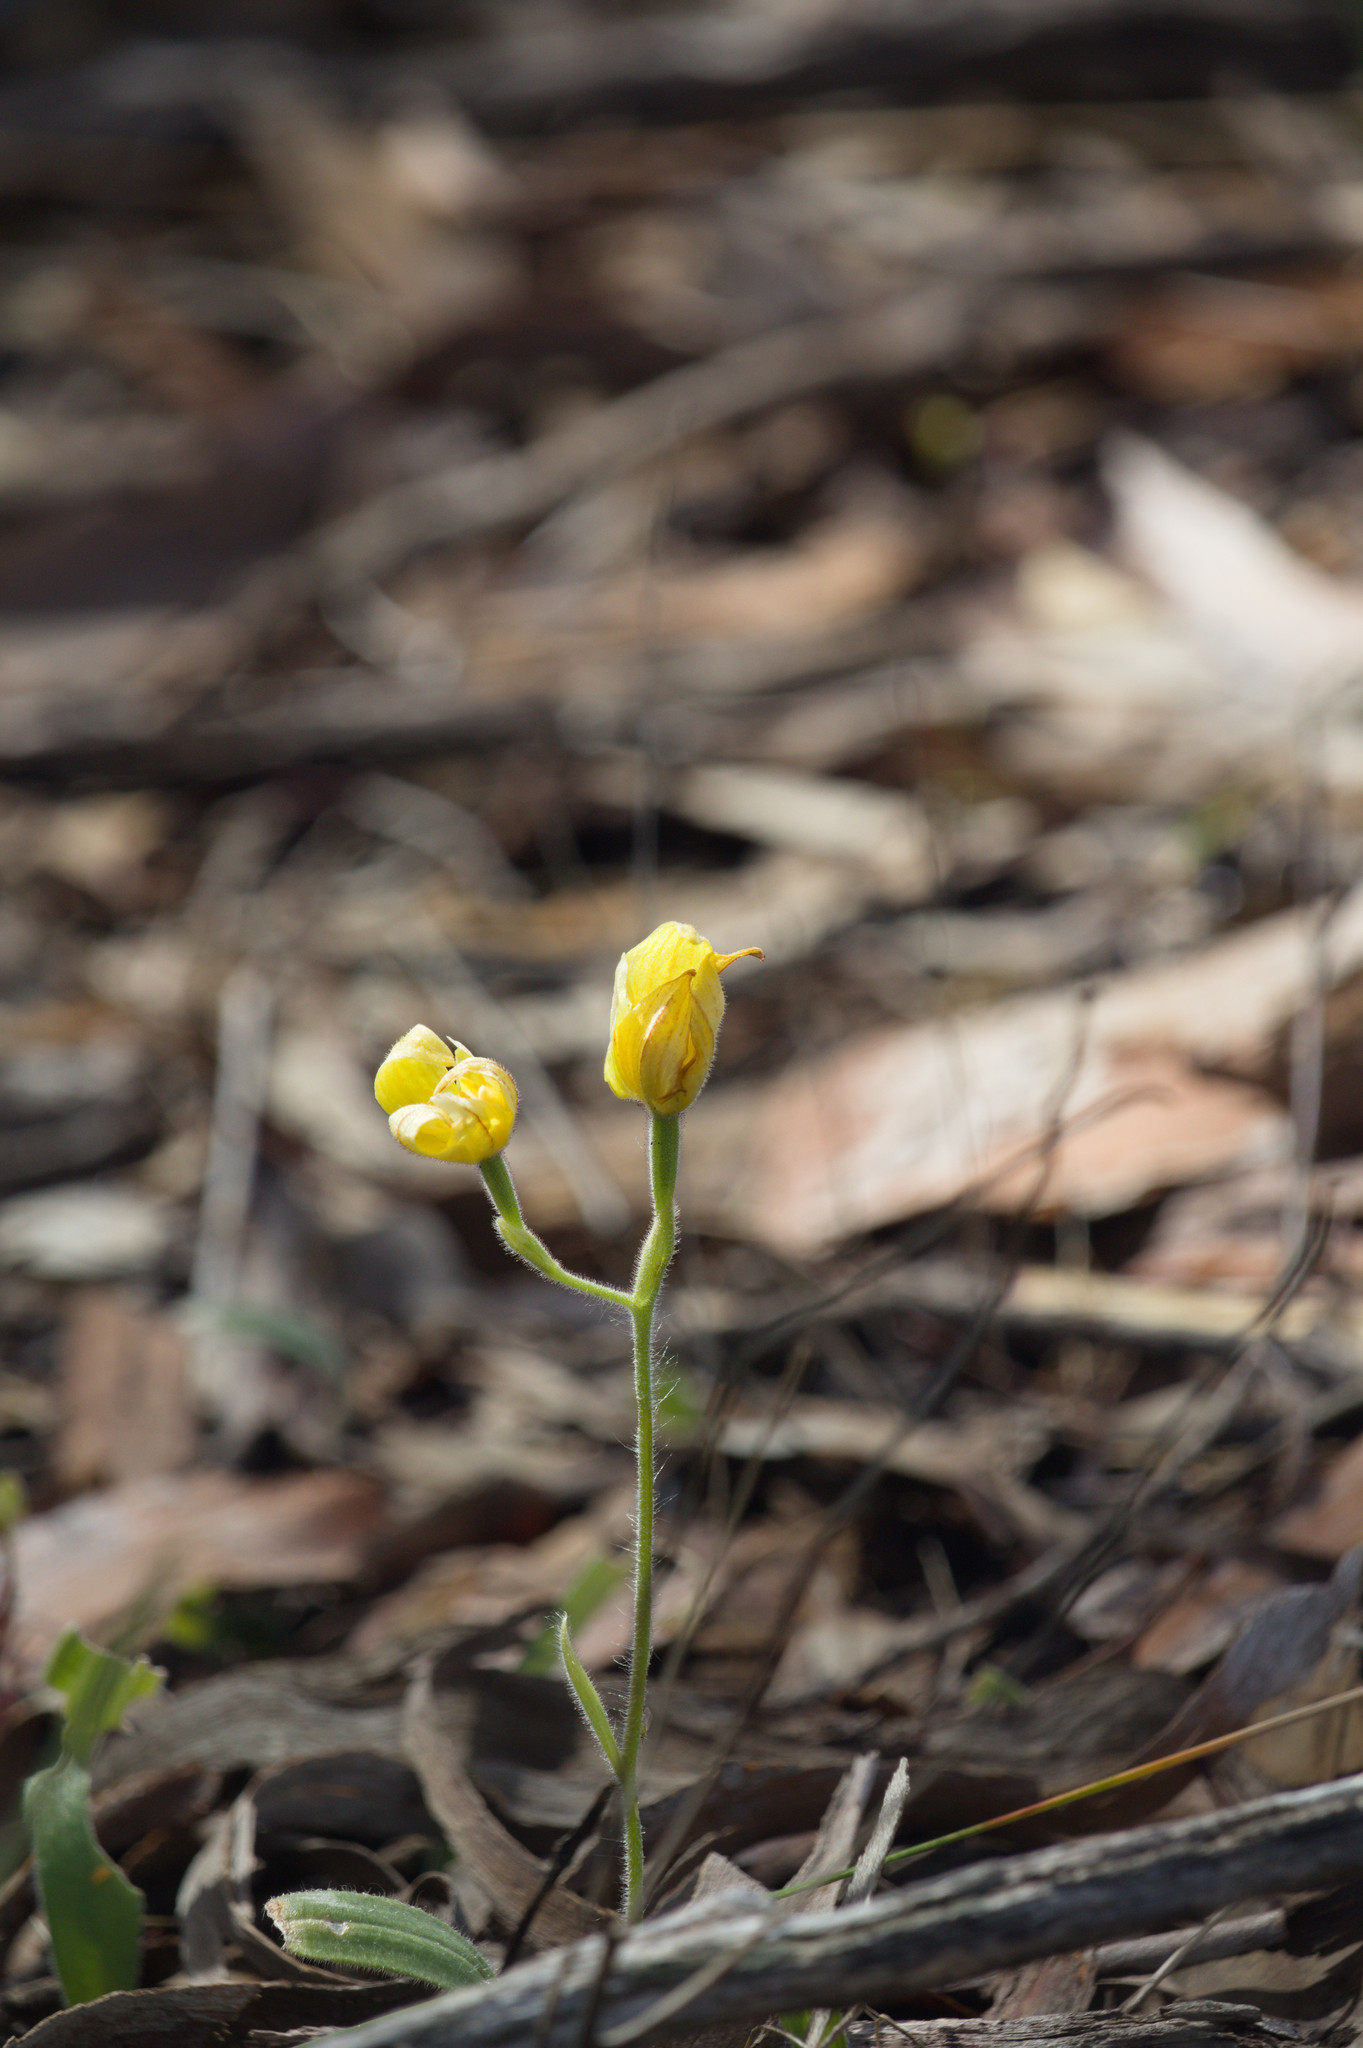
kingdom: Plantae
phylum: Tracheophyta
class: Liliopsida
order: Asparagales
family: Orchidaceae
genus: Caladenia
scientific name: Caladenia flava
